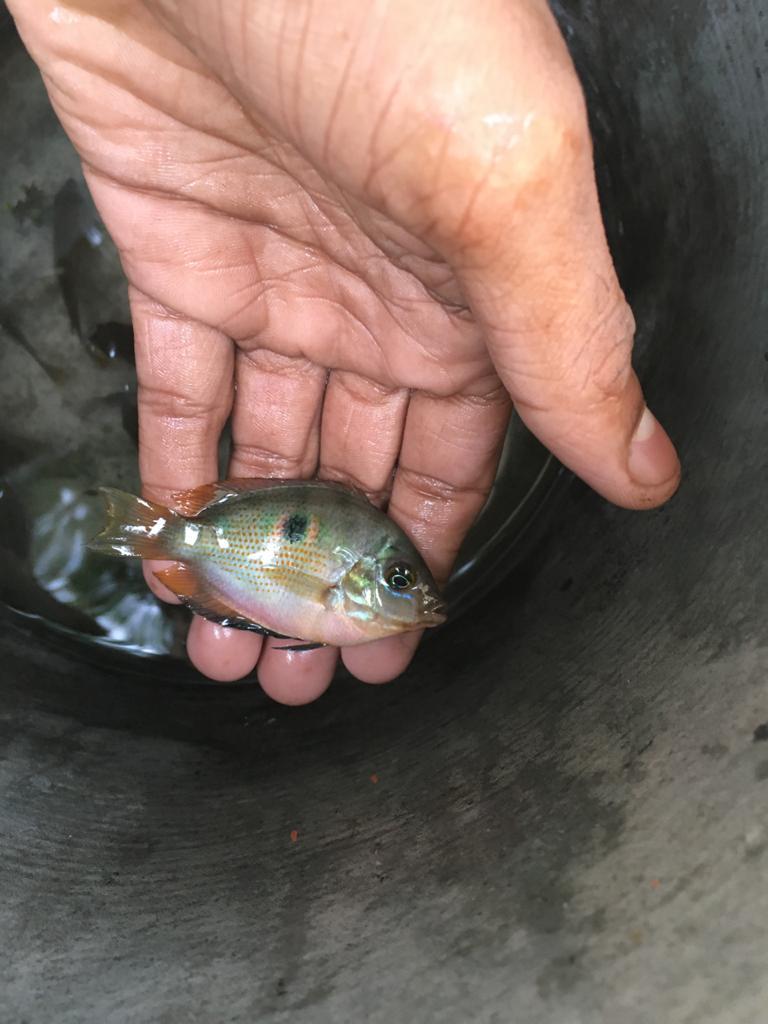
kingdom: Animalia
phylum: Chordata
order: Perciformes
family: Cichlidae
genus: Etroplus
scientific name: Etroplus maculatus
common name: Orange chromide
